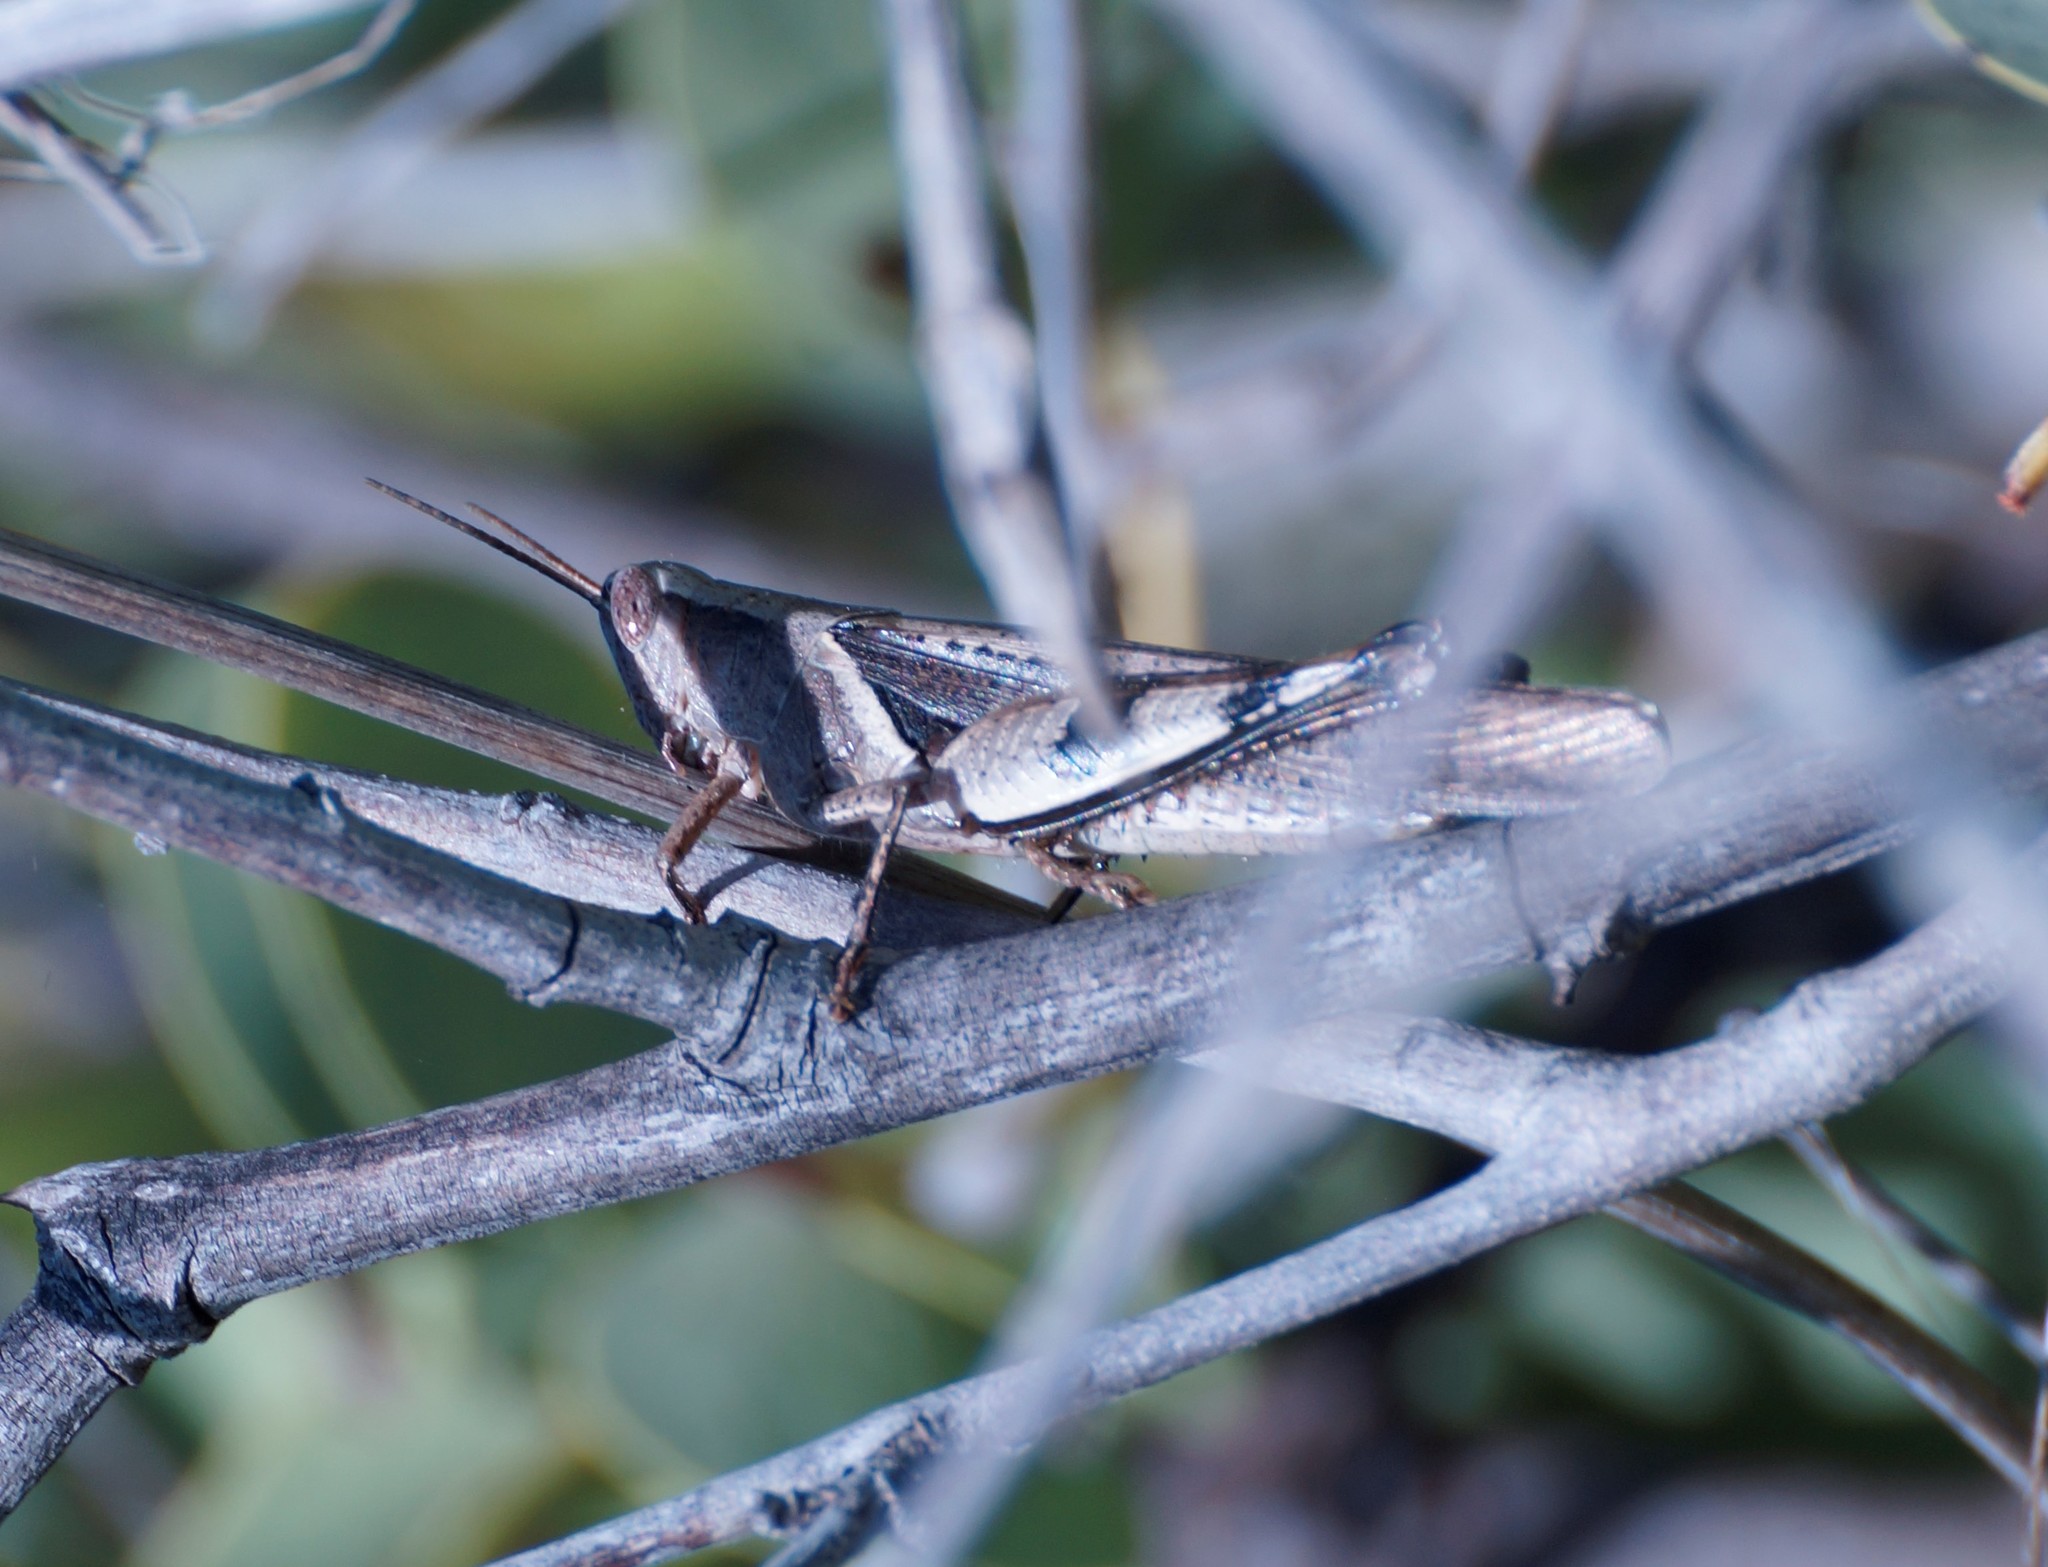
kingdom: Animalia
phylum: Arthropoda
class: Insecta
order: Orthoptera
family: Acrididae
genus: Stenocatantops
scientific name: Stenocatantops angustifrons
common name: Common tropical sharptail
